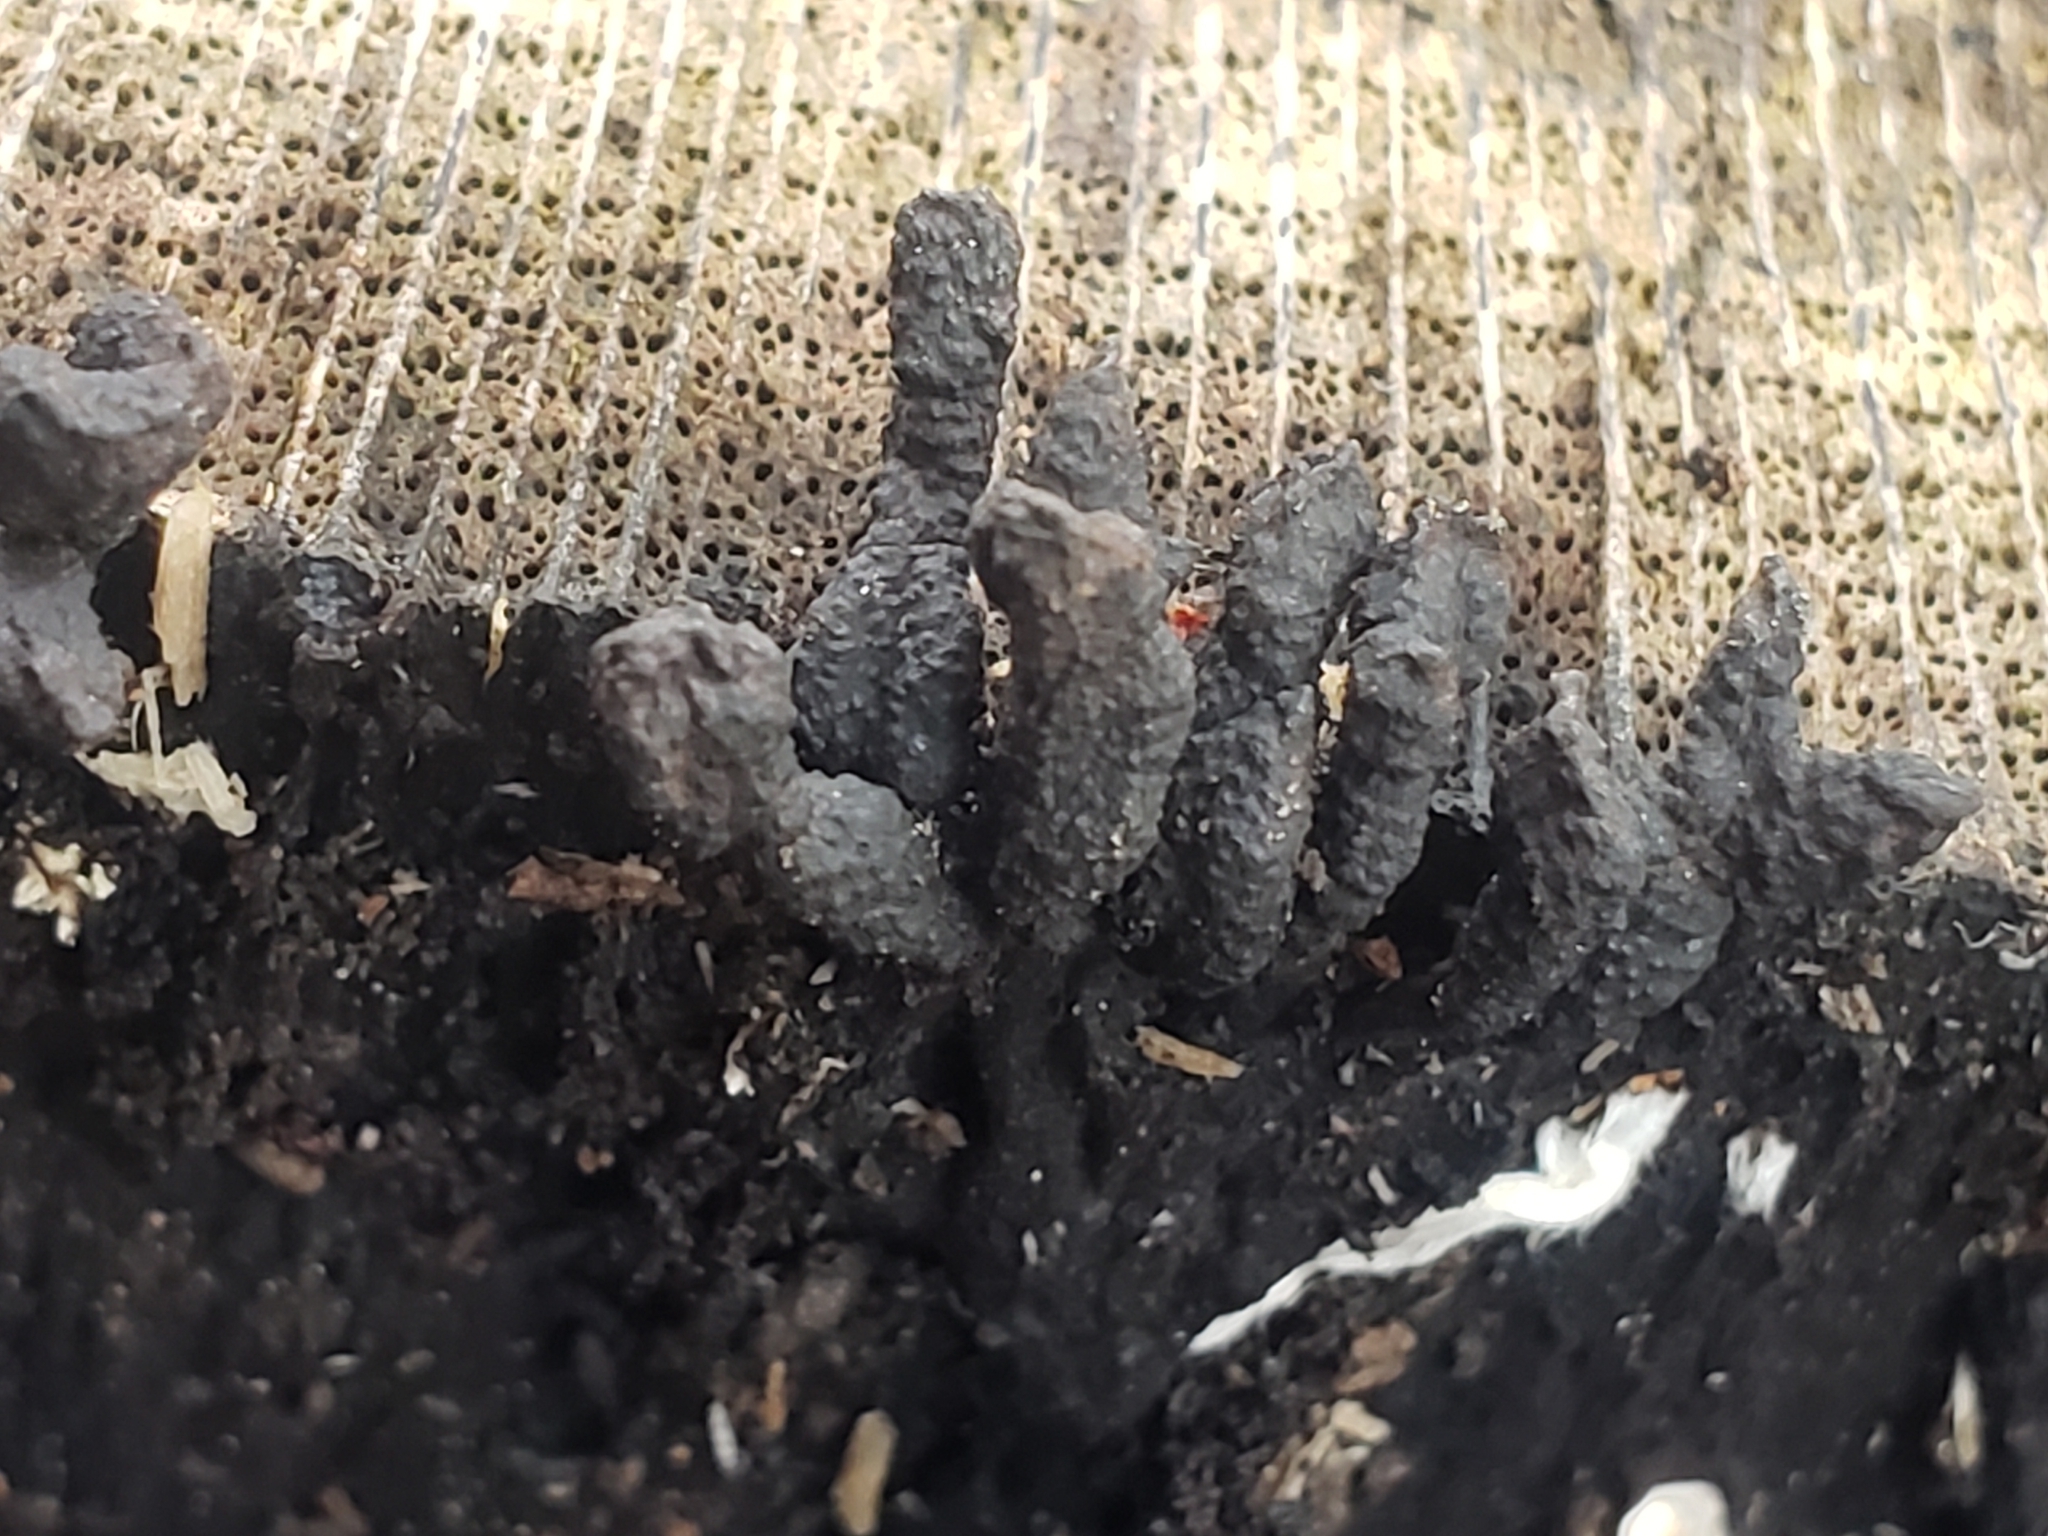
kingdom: Fungi
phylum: Ascomycota
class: Sordariomycetes
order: Xylariales
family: Xylariaceae
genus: Xylaria
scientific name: Xylaria polymorpha
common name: Dead man's fingers
